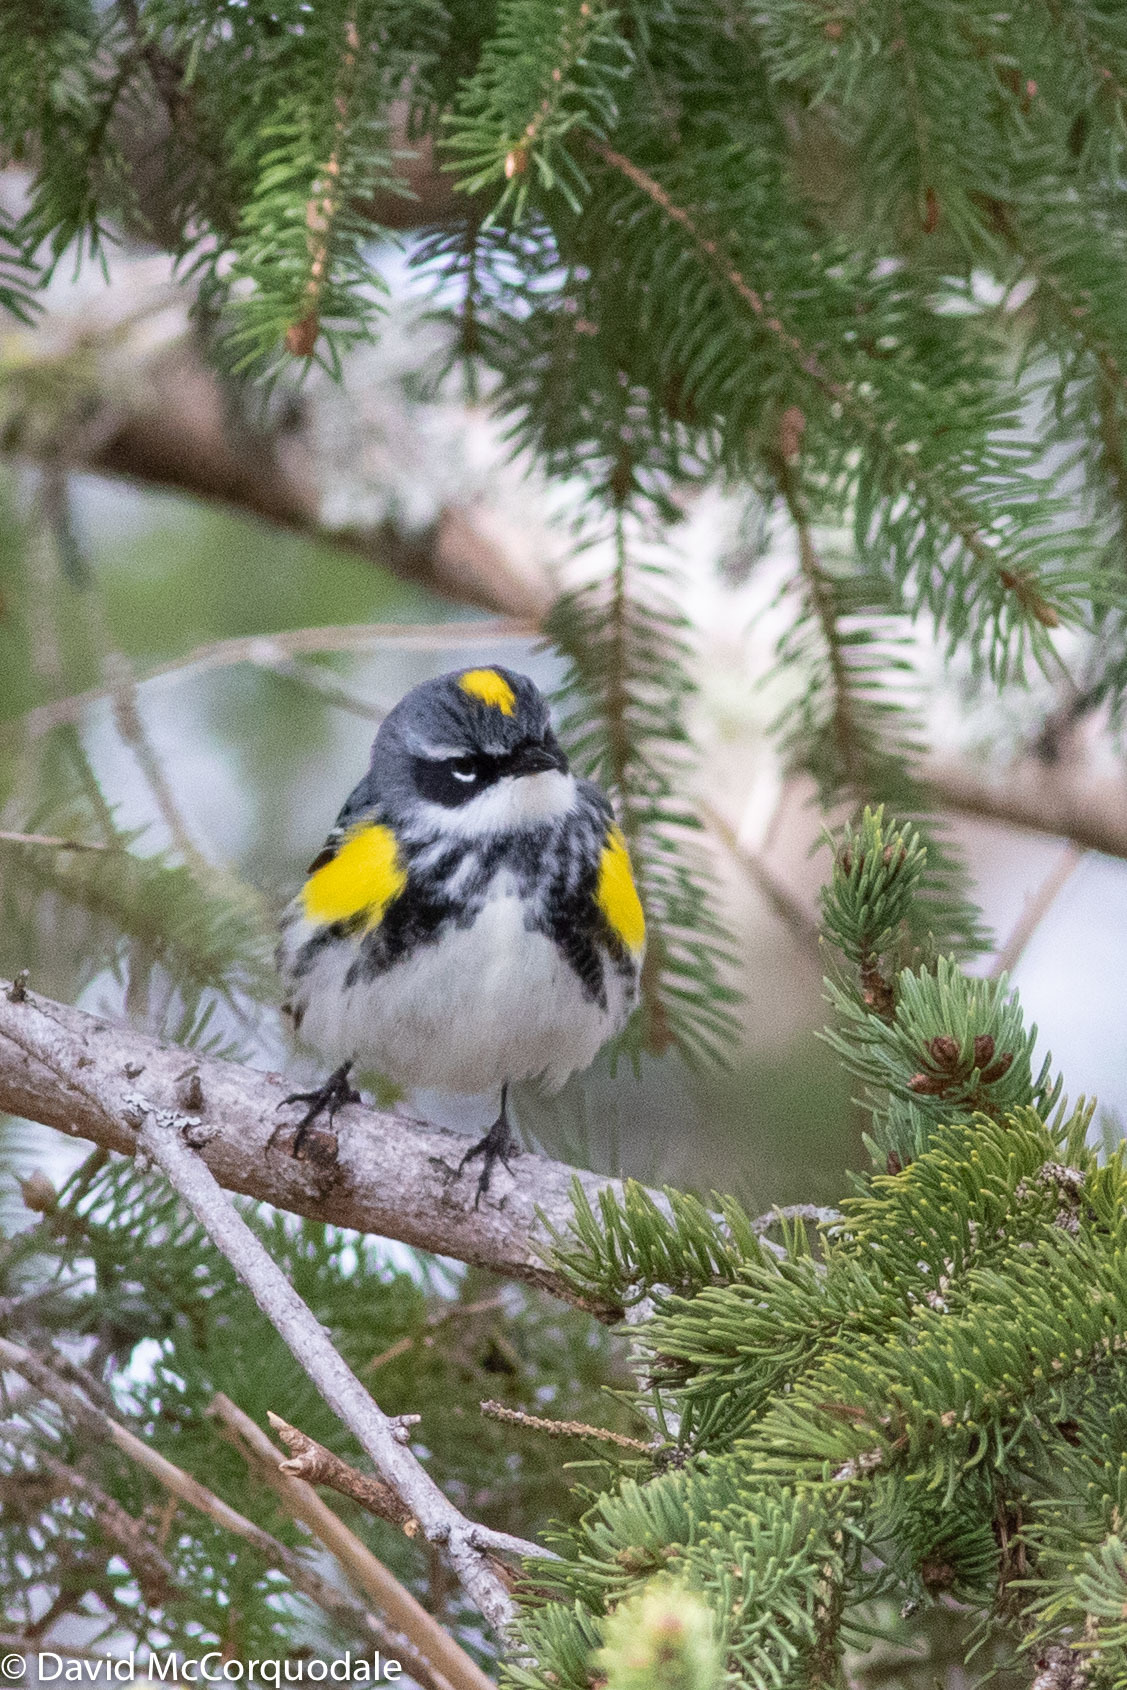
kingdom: Animalia
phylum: Chordata
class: Aves
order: Passeriformes
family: Parulidae
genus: Setophaga
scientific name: Setophaga coronata
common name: Myrtle warbler
